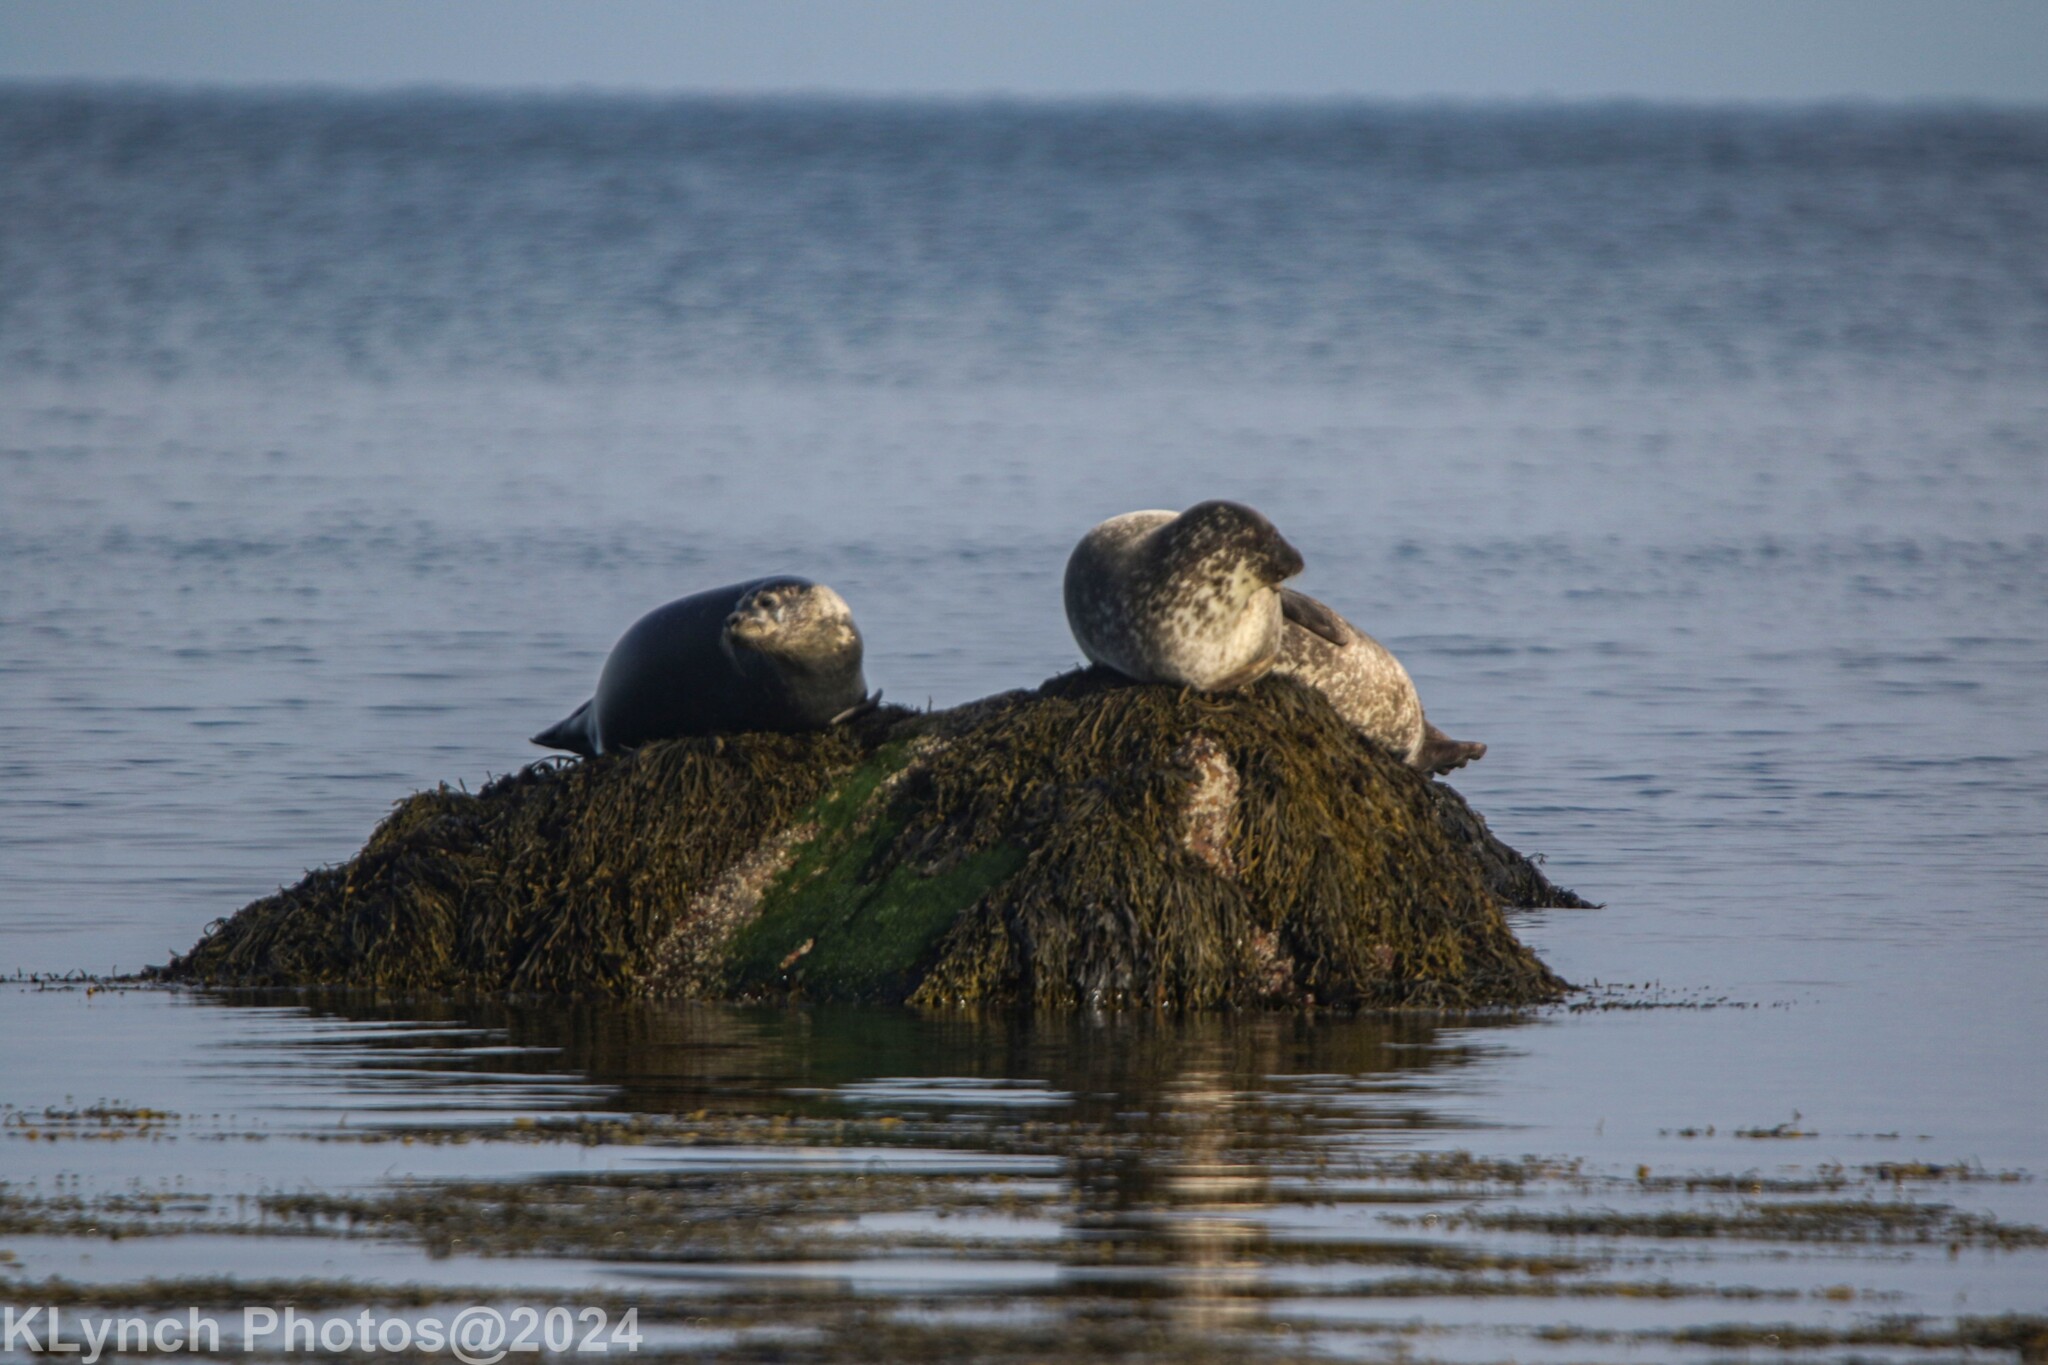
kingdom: Animalia
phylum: Chordata
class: Mammalia
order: Carnivora
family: Phocidae
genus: Phoca
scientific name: Phoca vitulina
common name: Harbor seal
